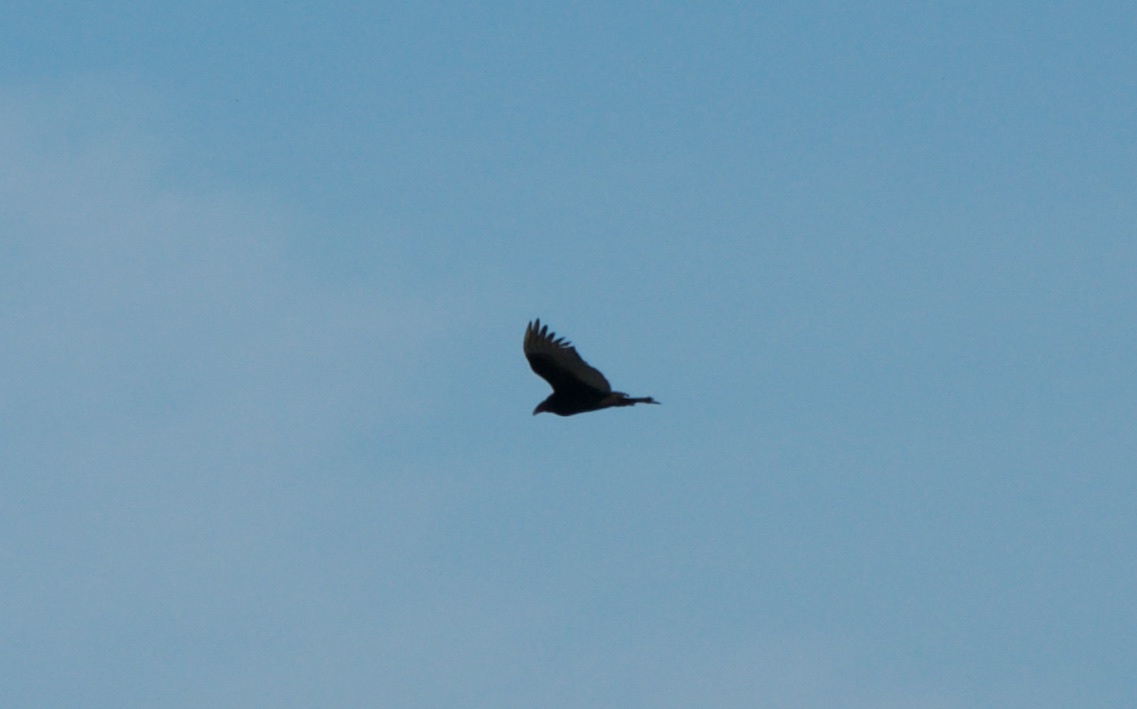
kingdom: Animalia
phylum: Chordata
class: Aves
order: Accipitriformes
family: Cathartidae
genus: Cathartes
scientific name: Cathartes aura
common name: Turkey vulture
